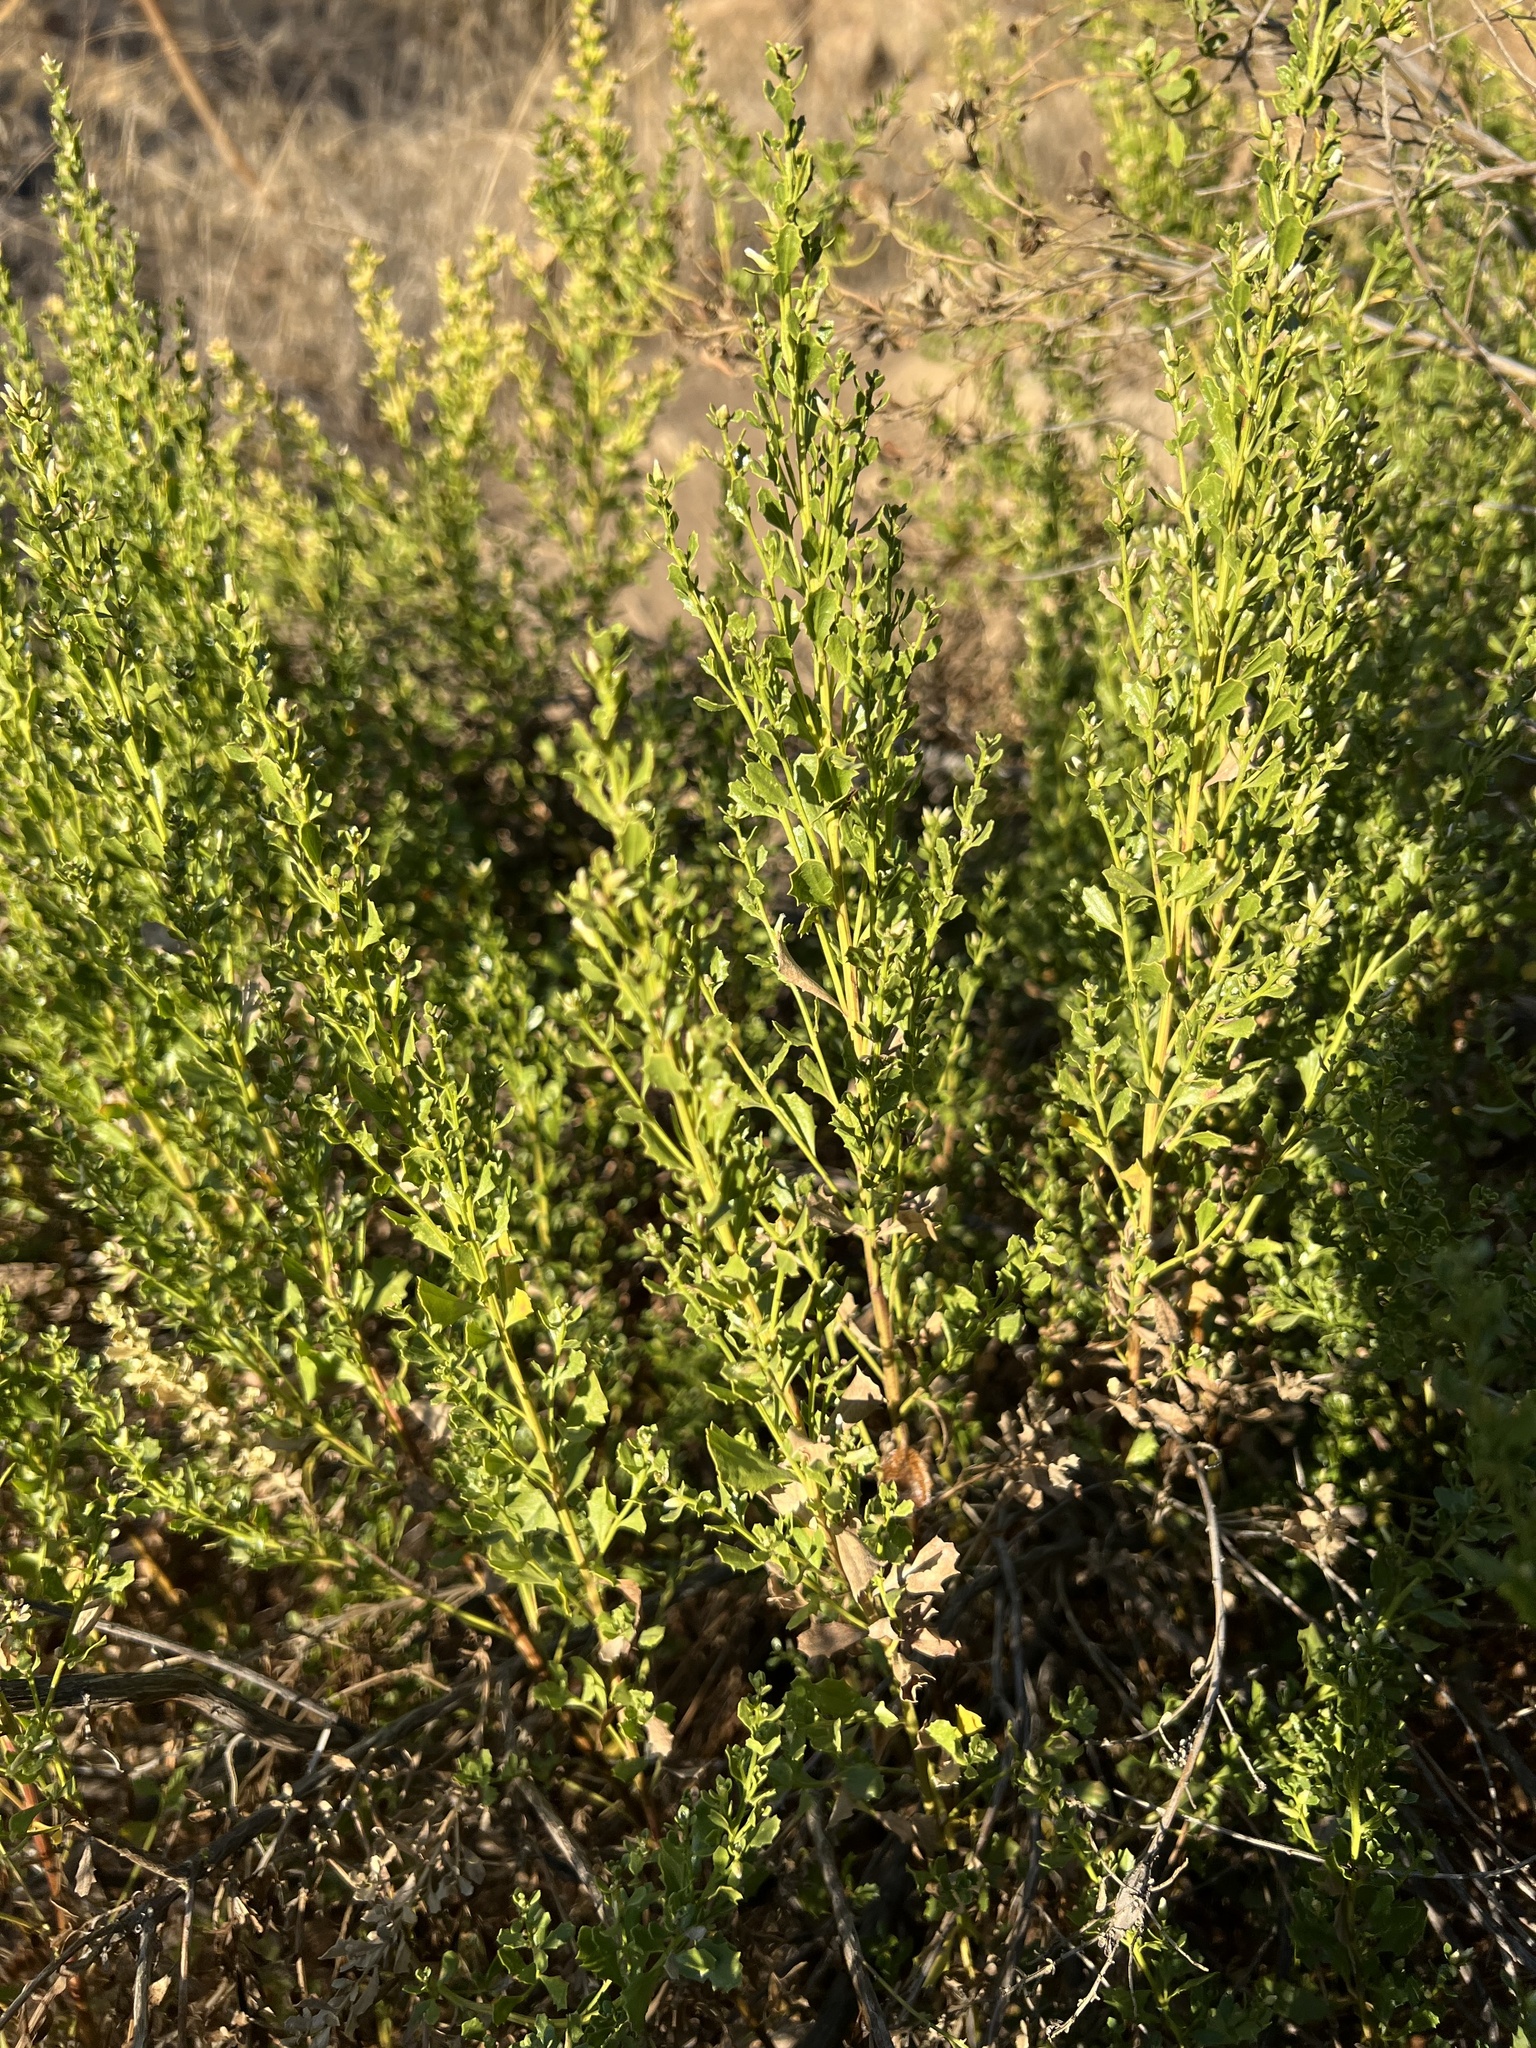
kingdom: Plantae
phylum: Tracheophyta
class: Magnoliopsida
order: Asterales
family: Asteraceae
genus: Baccharis
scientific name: Baccharis pilularis
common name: Coyotebrush
